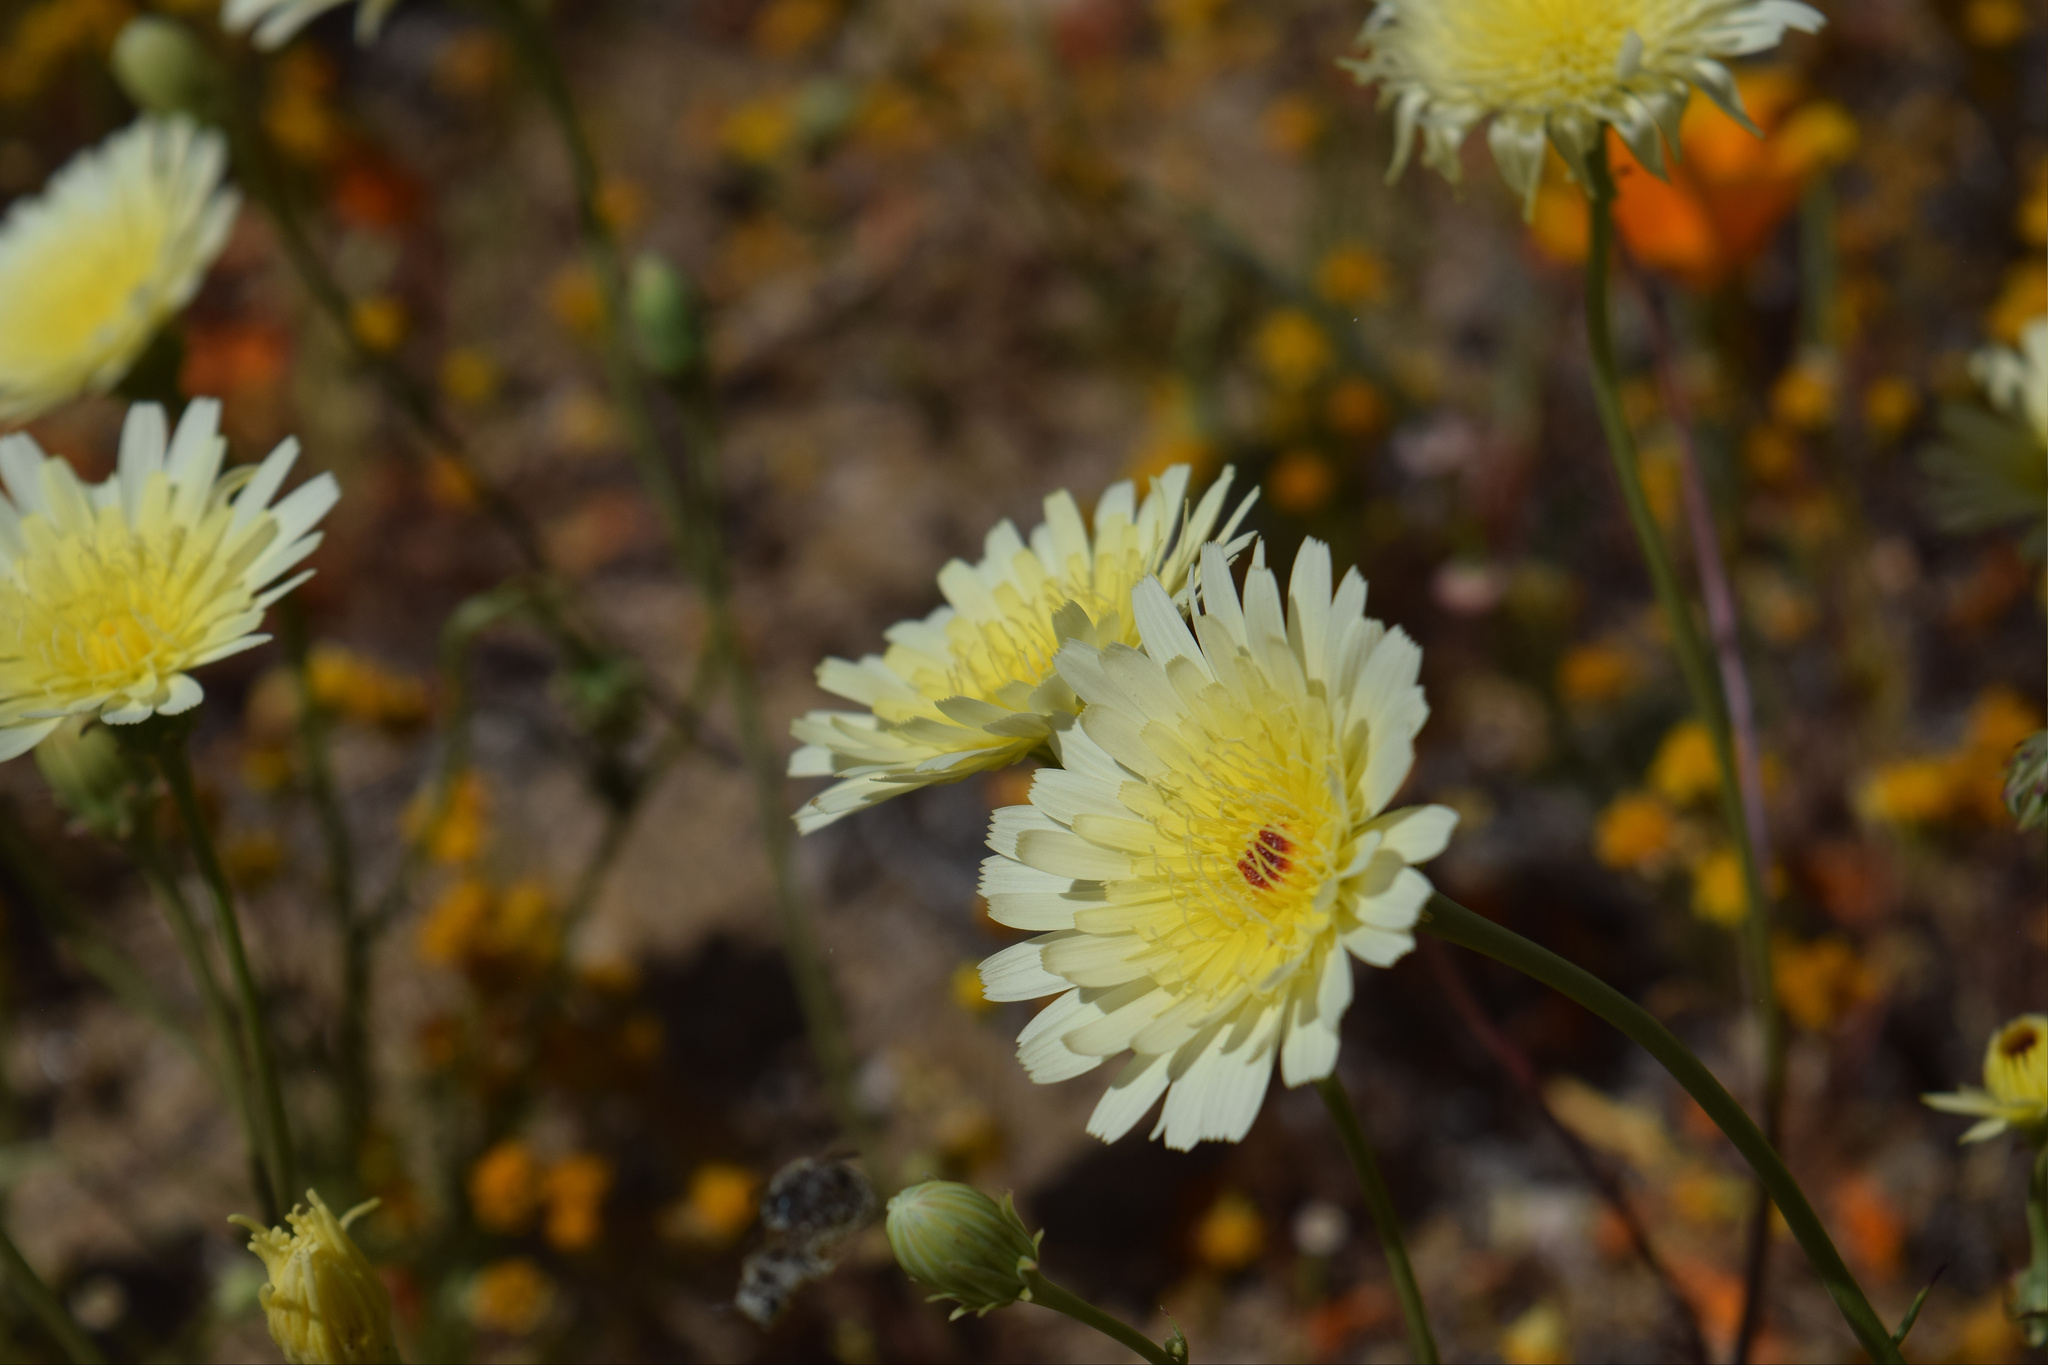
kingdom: Plantae
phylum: Tracheophyta
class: Magnoliopsida
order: Asterales
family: Asteraceae
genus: Malacothrix
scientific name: Malacothrix glabrata
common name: Smooth desert-dandelion
